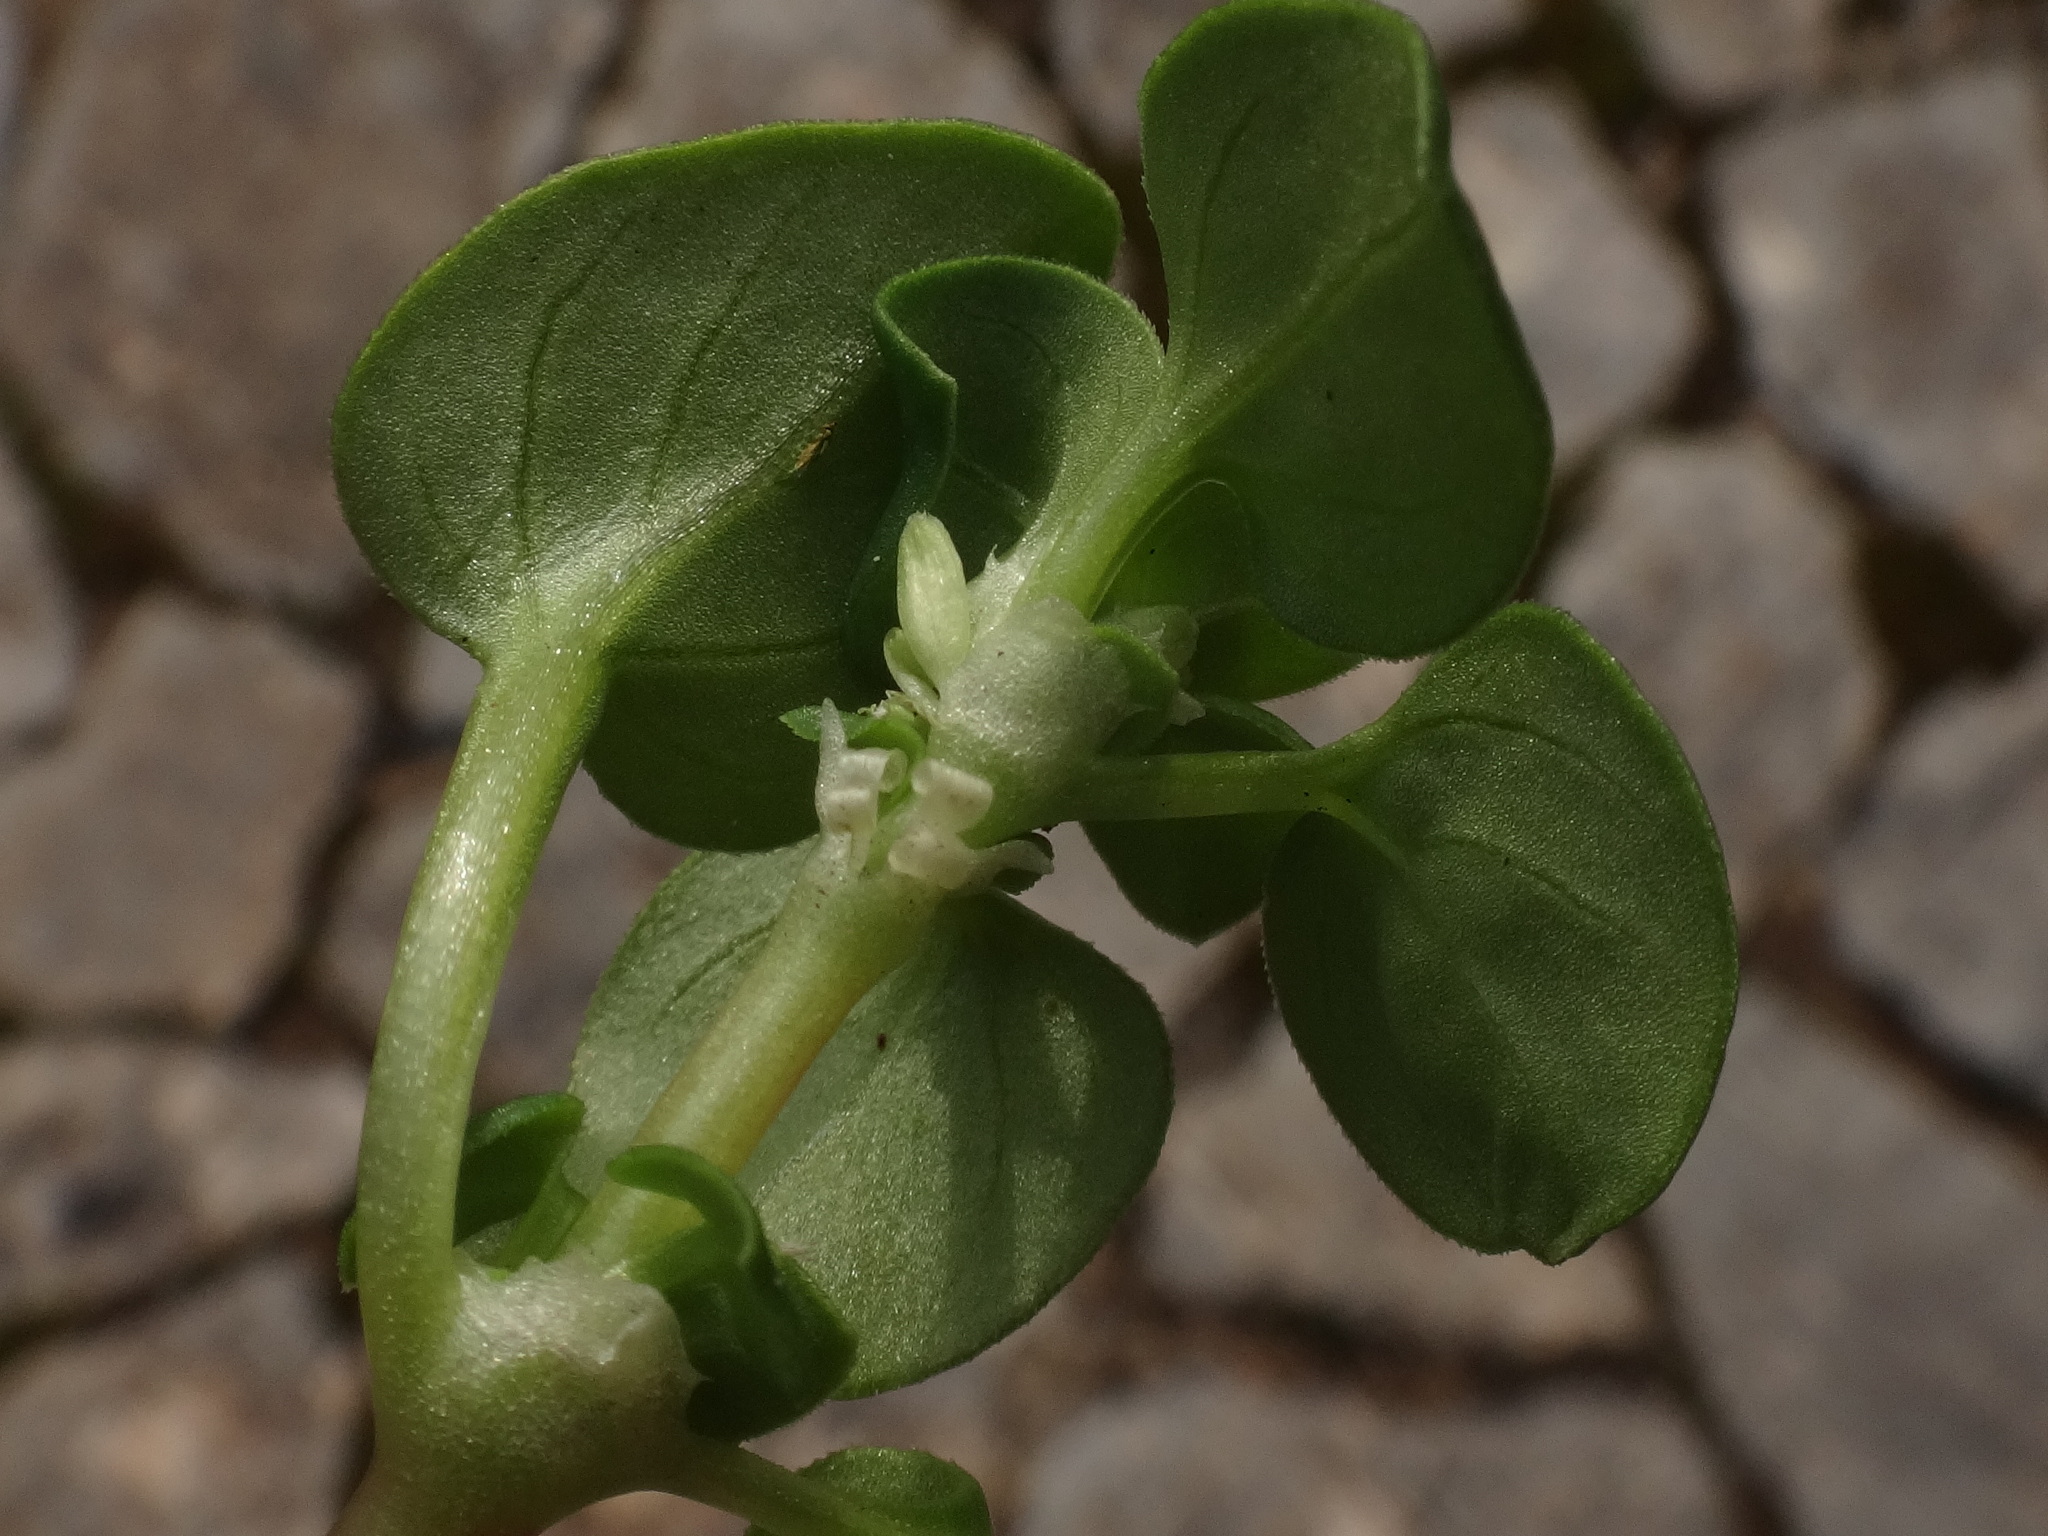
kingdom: Plantae
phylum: Tracheophyta
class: Magnoliopsida
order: Gentianales
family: Rubiaceae
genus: Theligonum
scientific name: Theligonum cynocrambe
